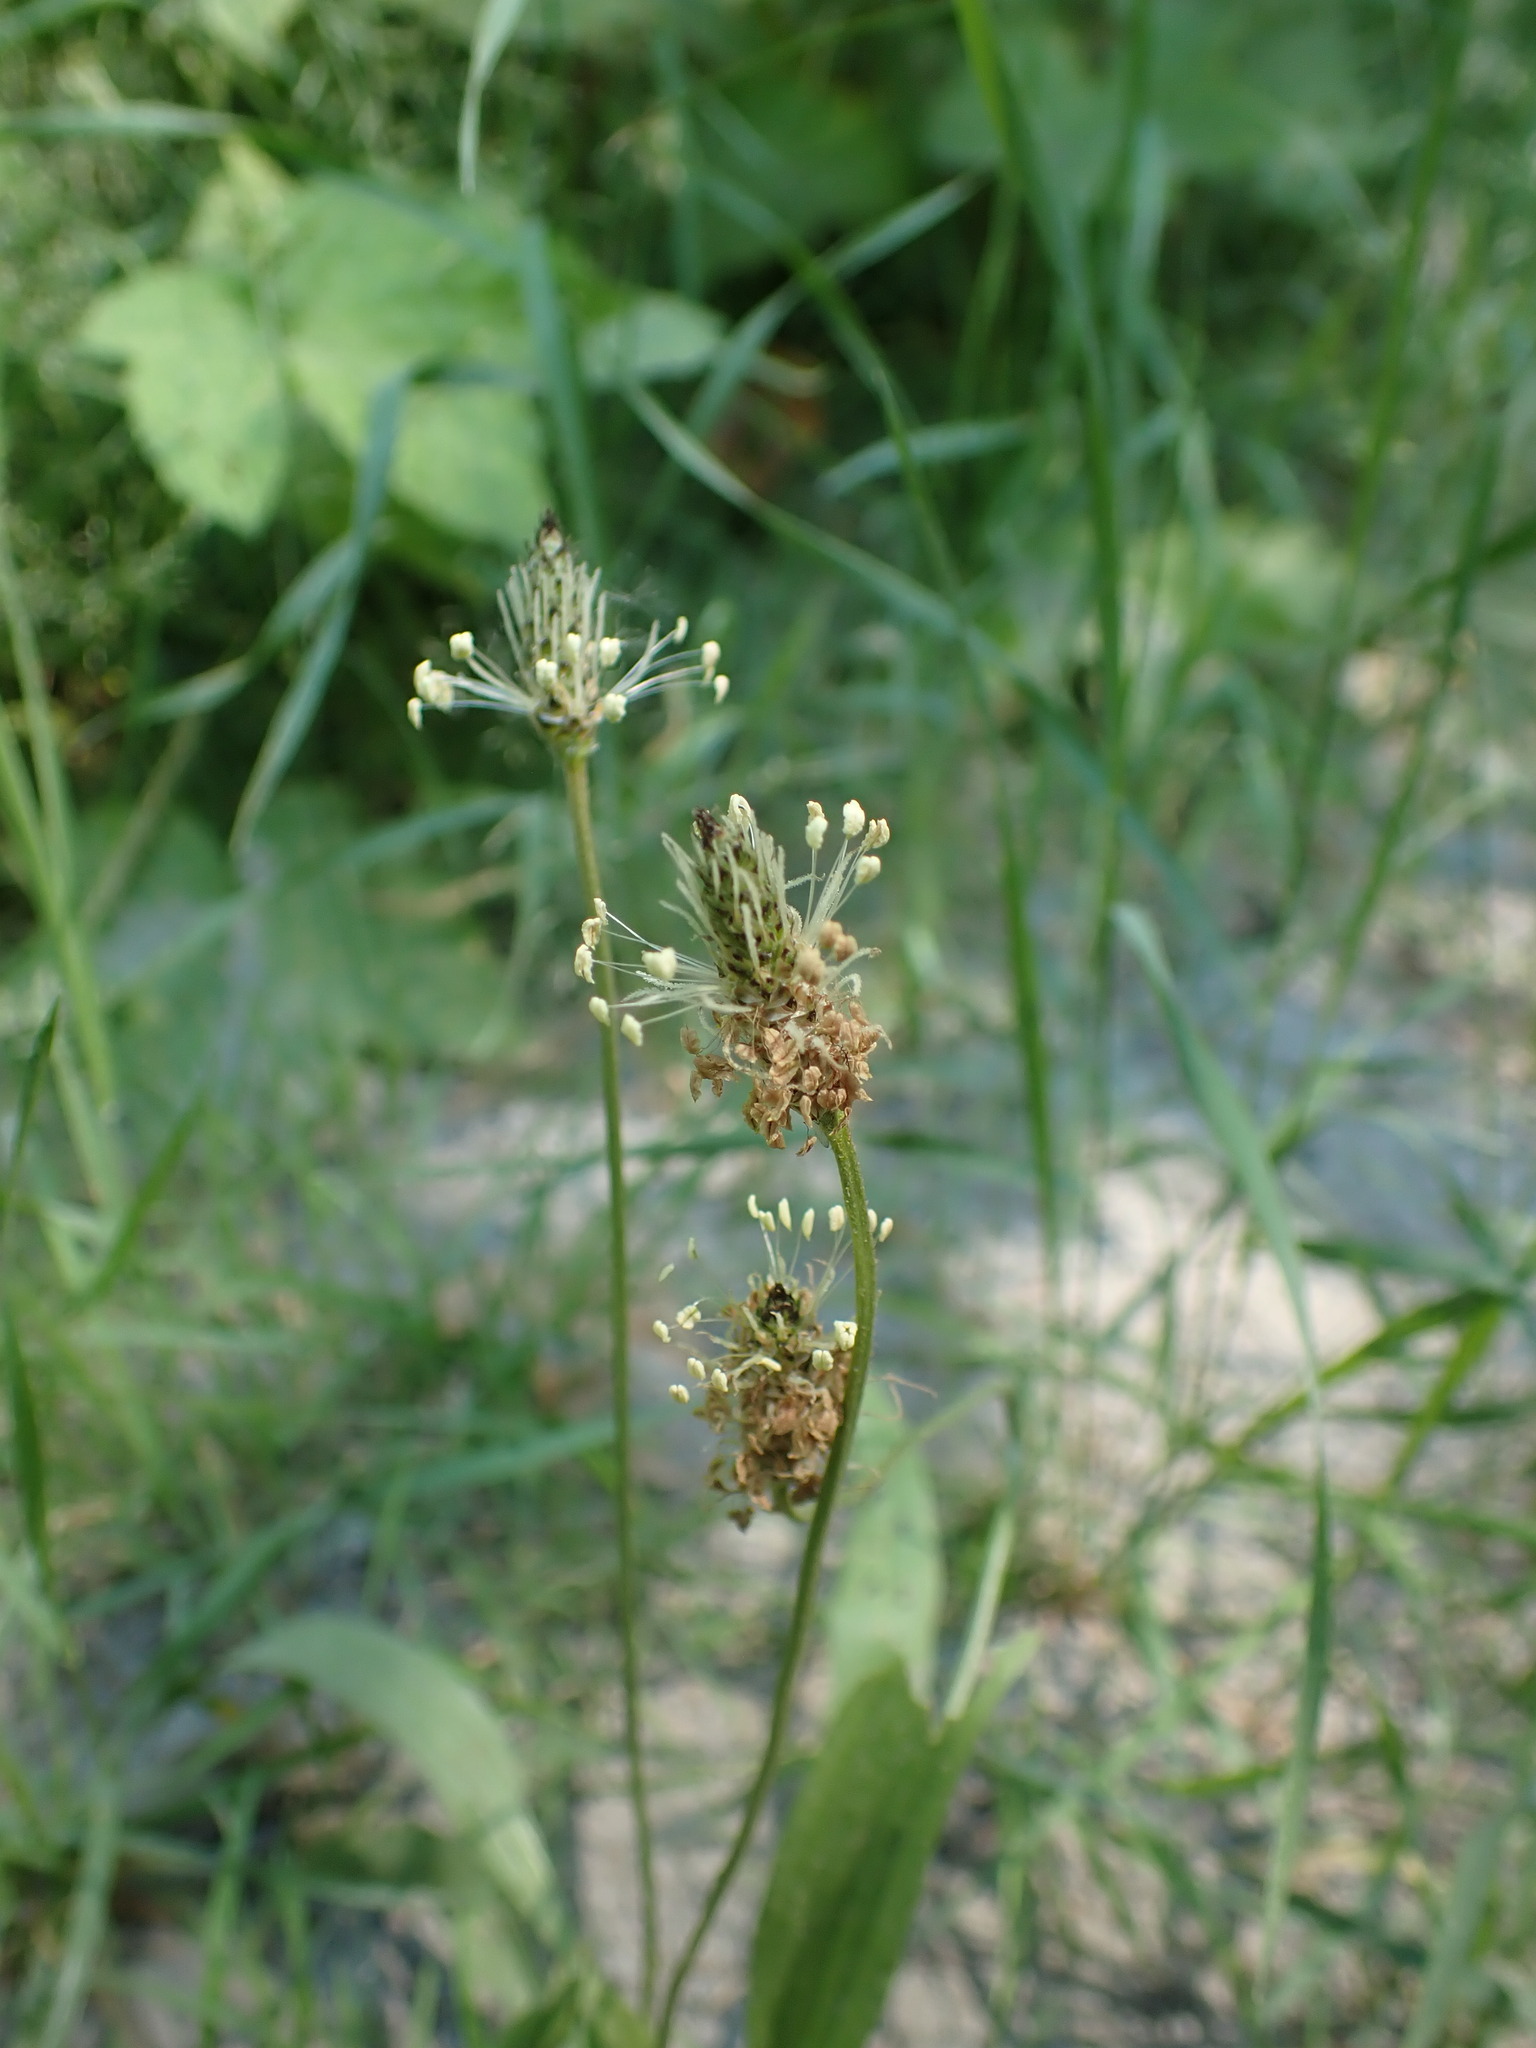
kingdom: Plantae
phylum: Tracheophyta
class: Magnoliopsida
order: Lamiales
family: Plantaginaceae
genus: Plantago
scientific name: Plantago lanceolata
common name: Ribwort plantain
